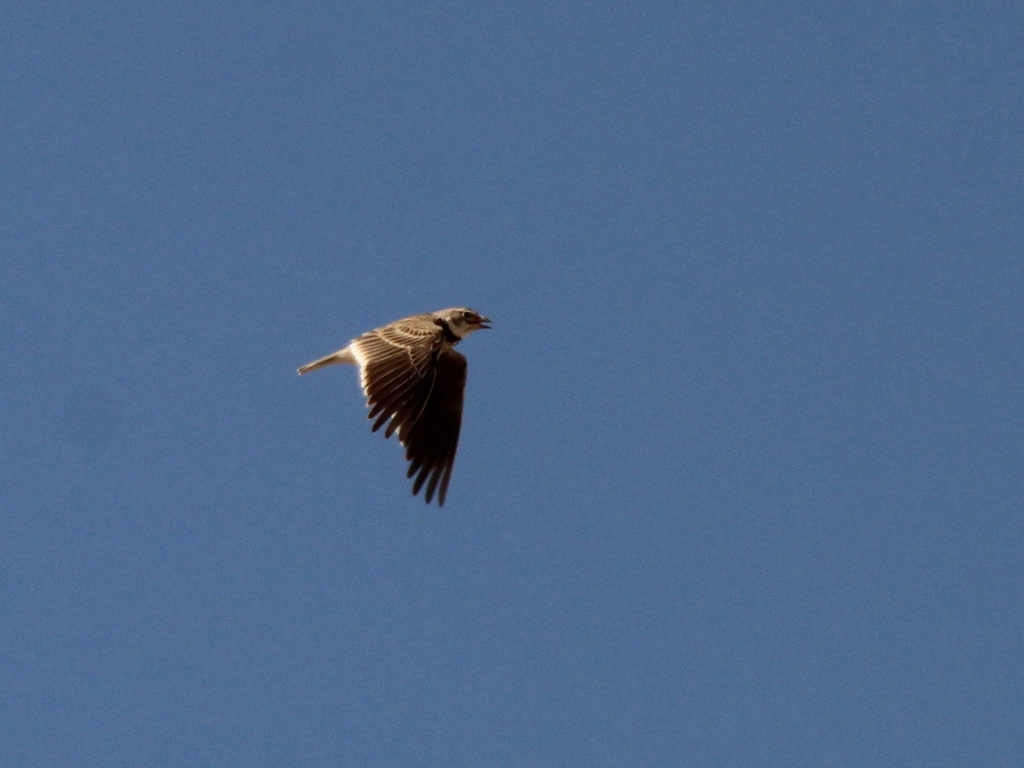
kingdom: Animalia
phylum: Chordata
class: Aves
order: Passeriformes
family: Alaudidae
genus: Melanocorypha
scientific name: Melanocorypha calandra
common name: Calandra lark
